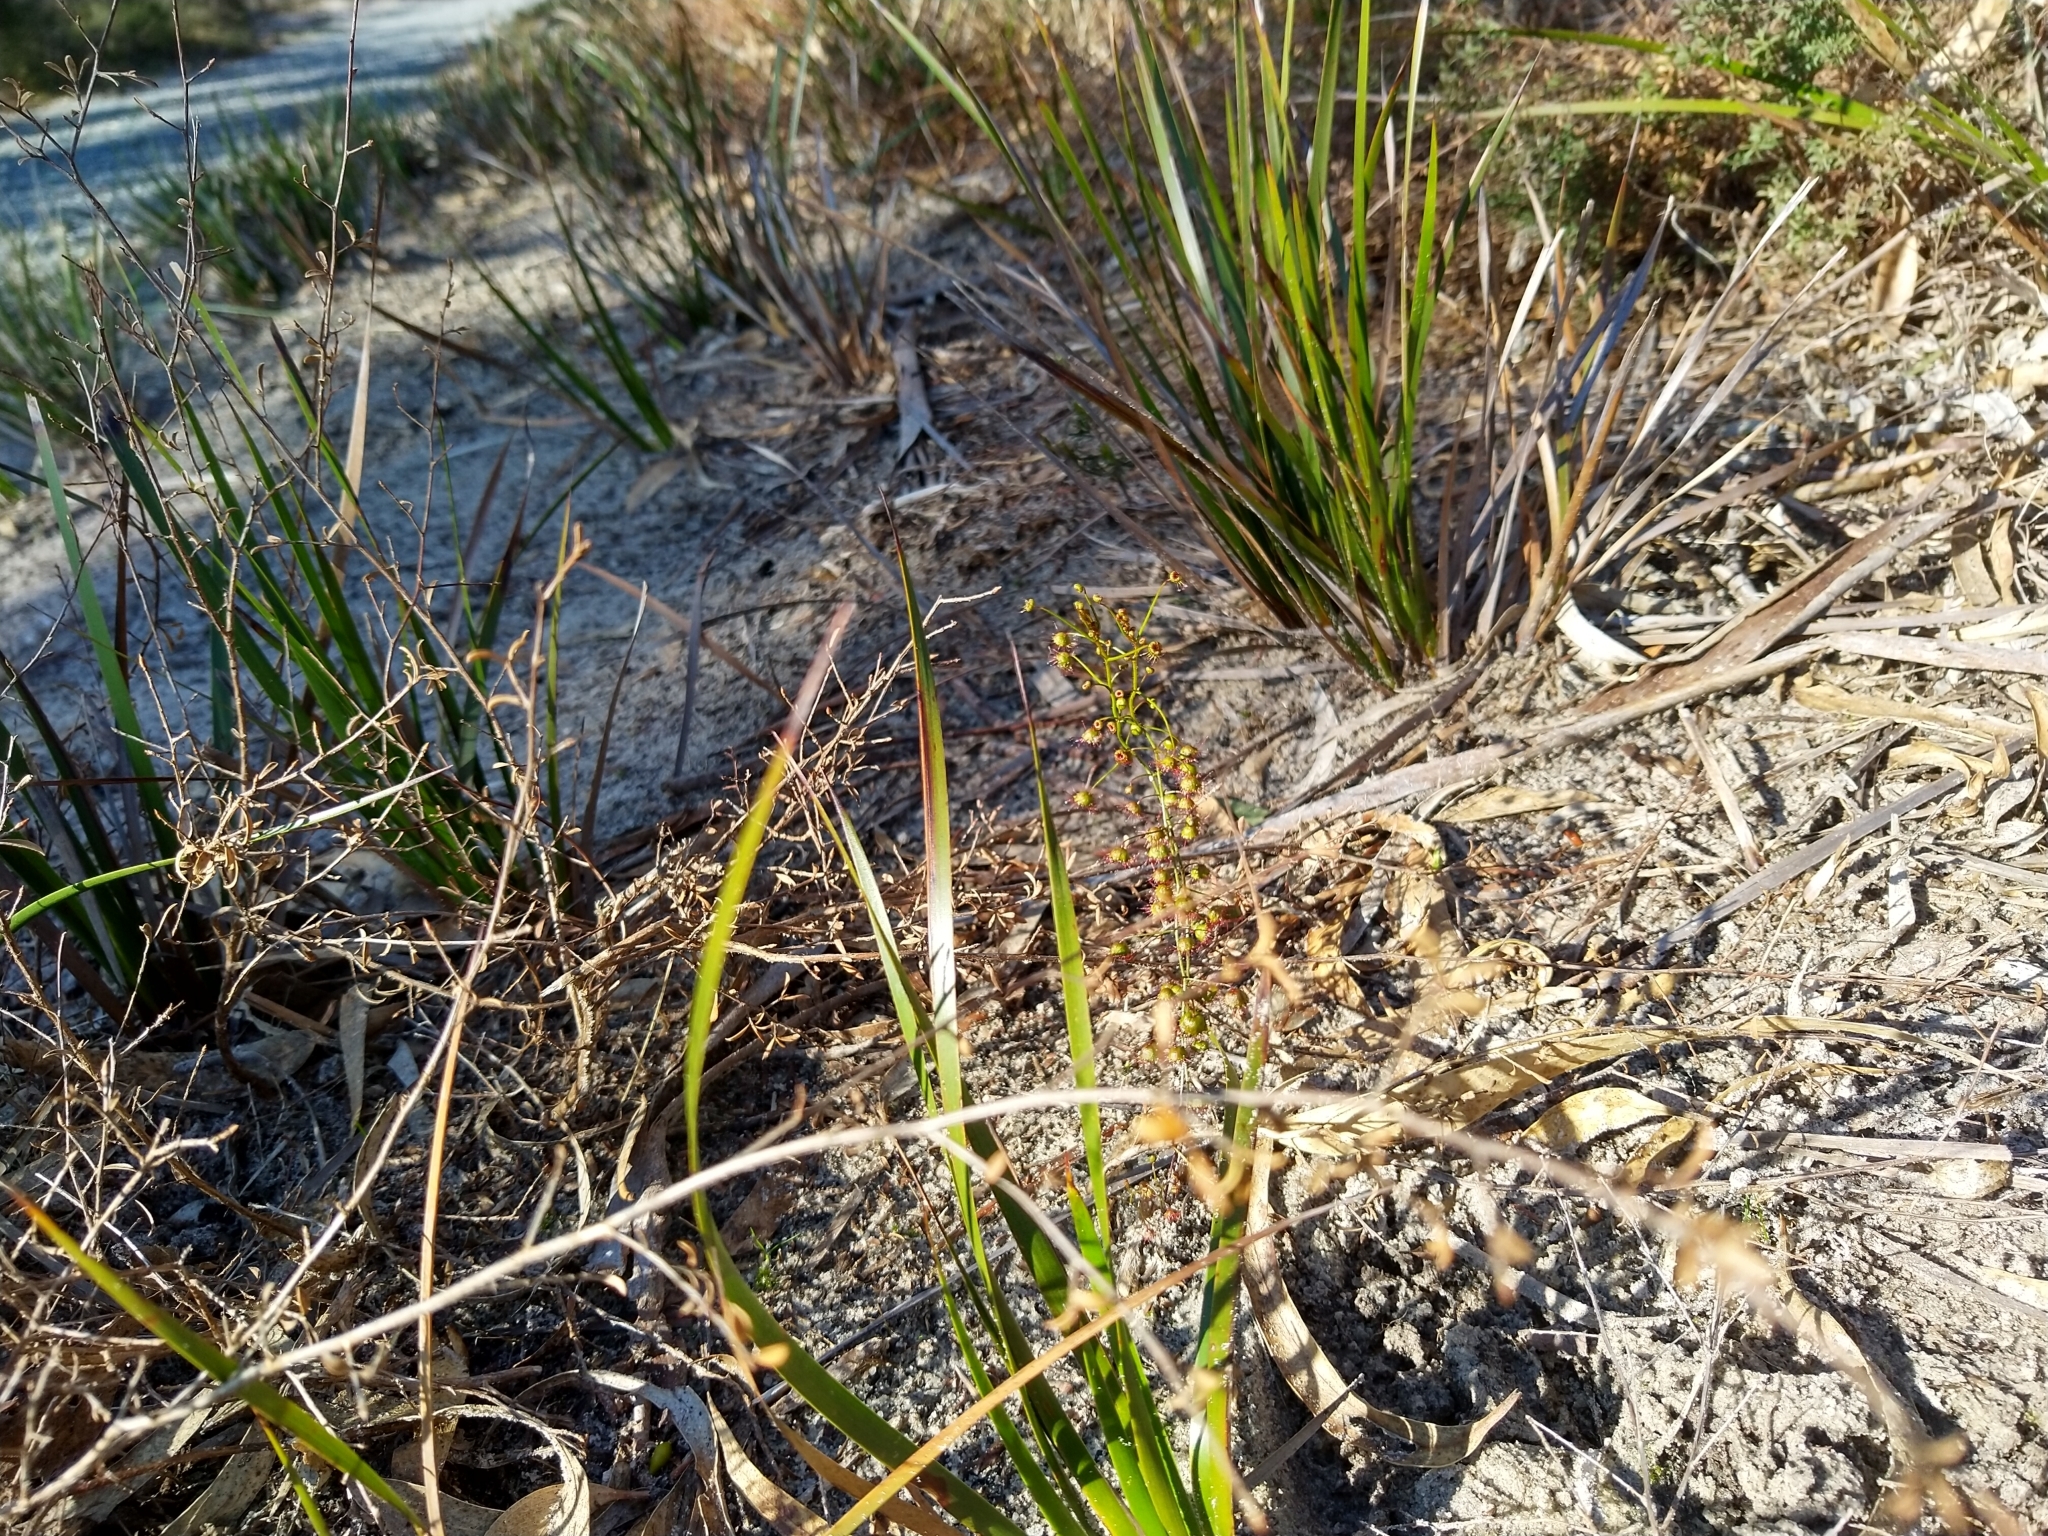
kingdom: Plantae
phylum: Tracheophyta
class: Magnoliopsida
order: Caryophyllales
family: Droseraceae
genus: Drosera
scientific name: Drosera planchonii
